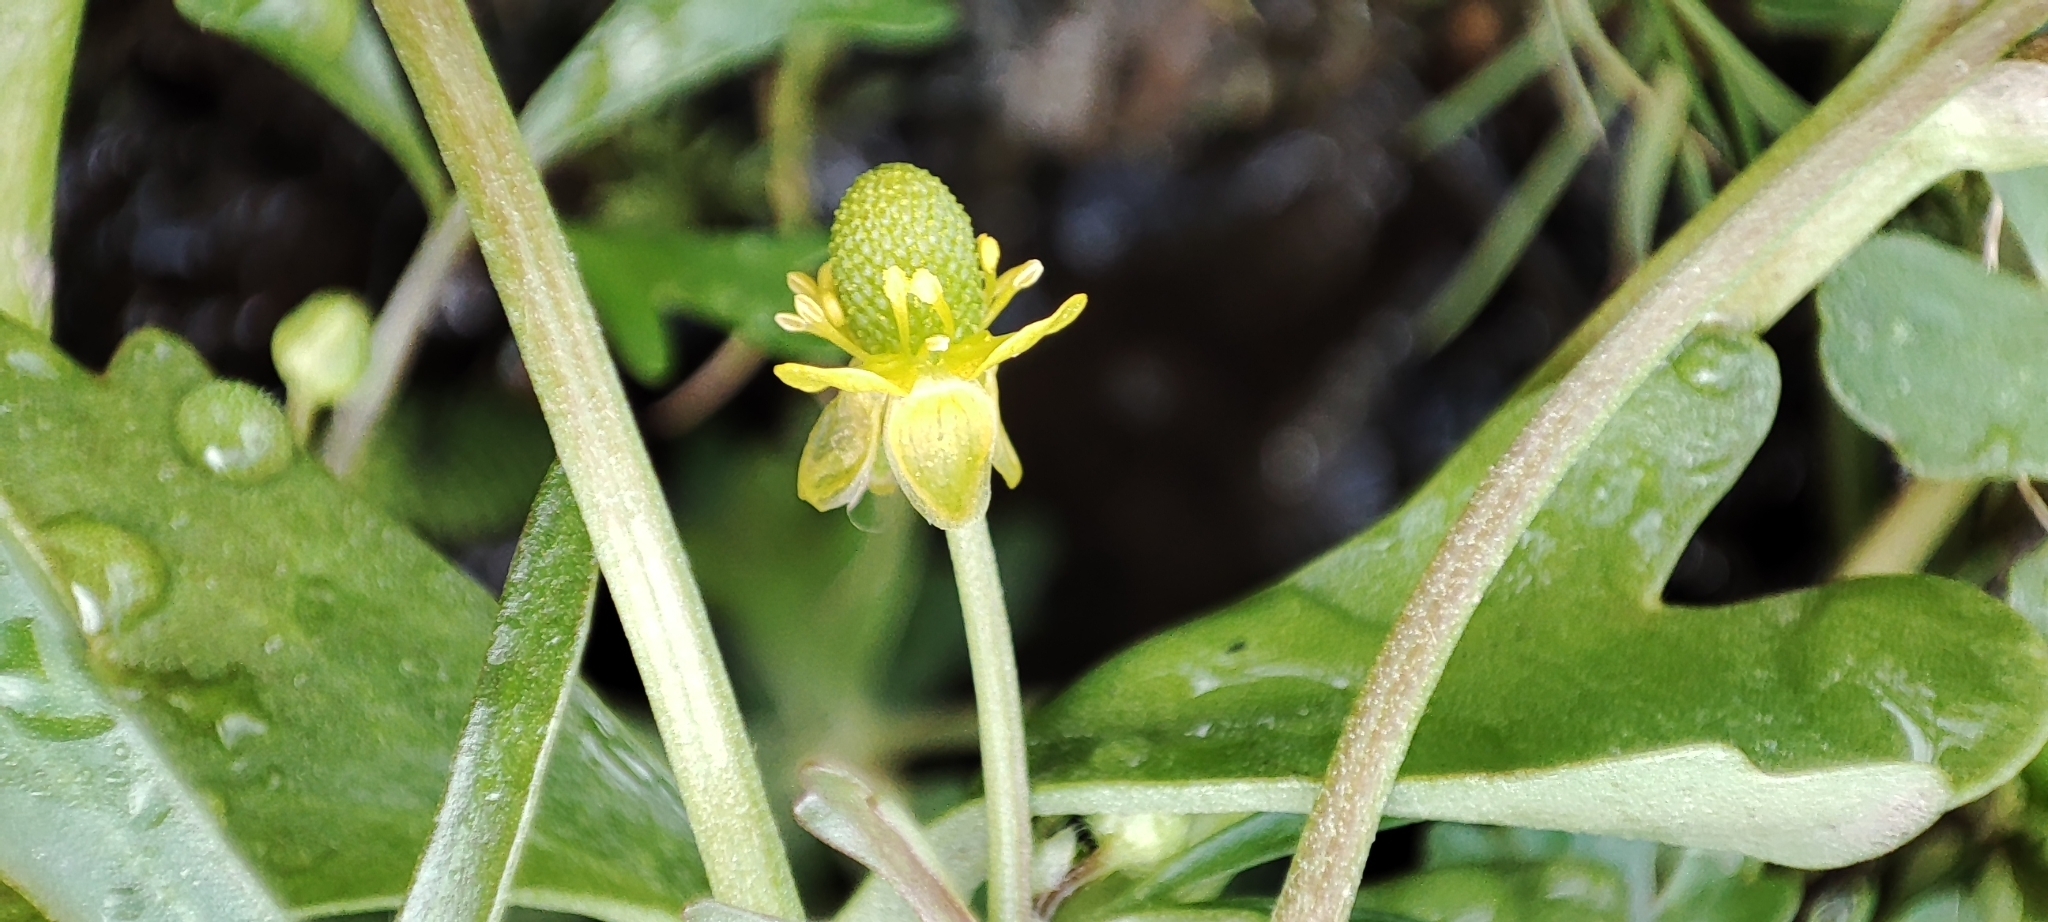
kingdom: Plantae
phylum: Tracheophyta
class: Magnoliopsida
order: Ranunculales
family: Ranunculaceae
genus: Ranunculus
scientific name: Ranunculus gmelinii
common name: Gmelin's buttercup
